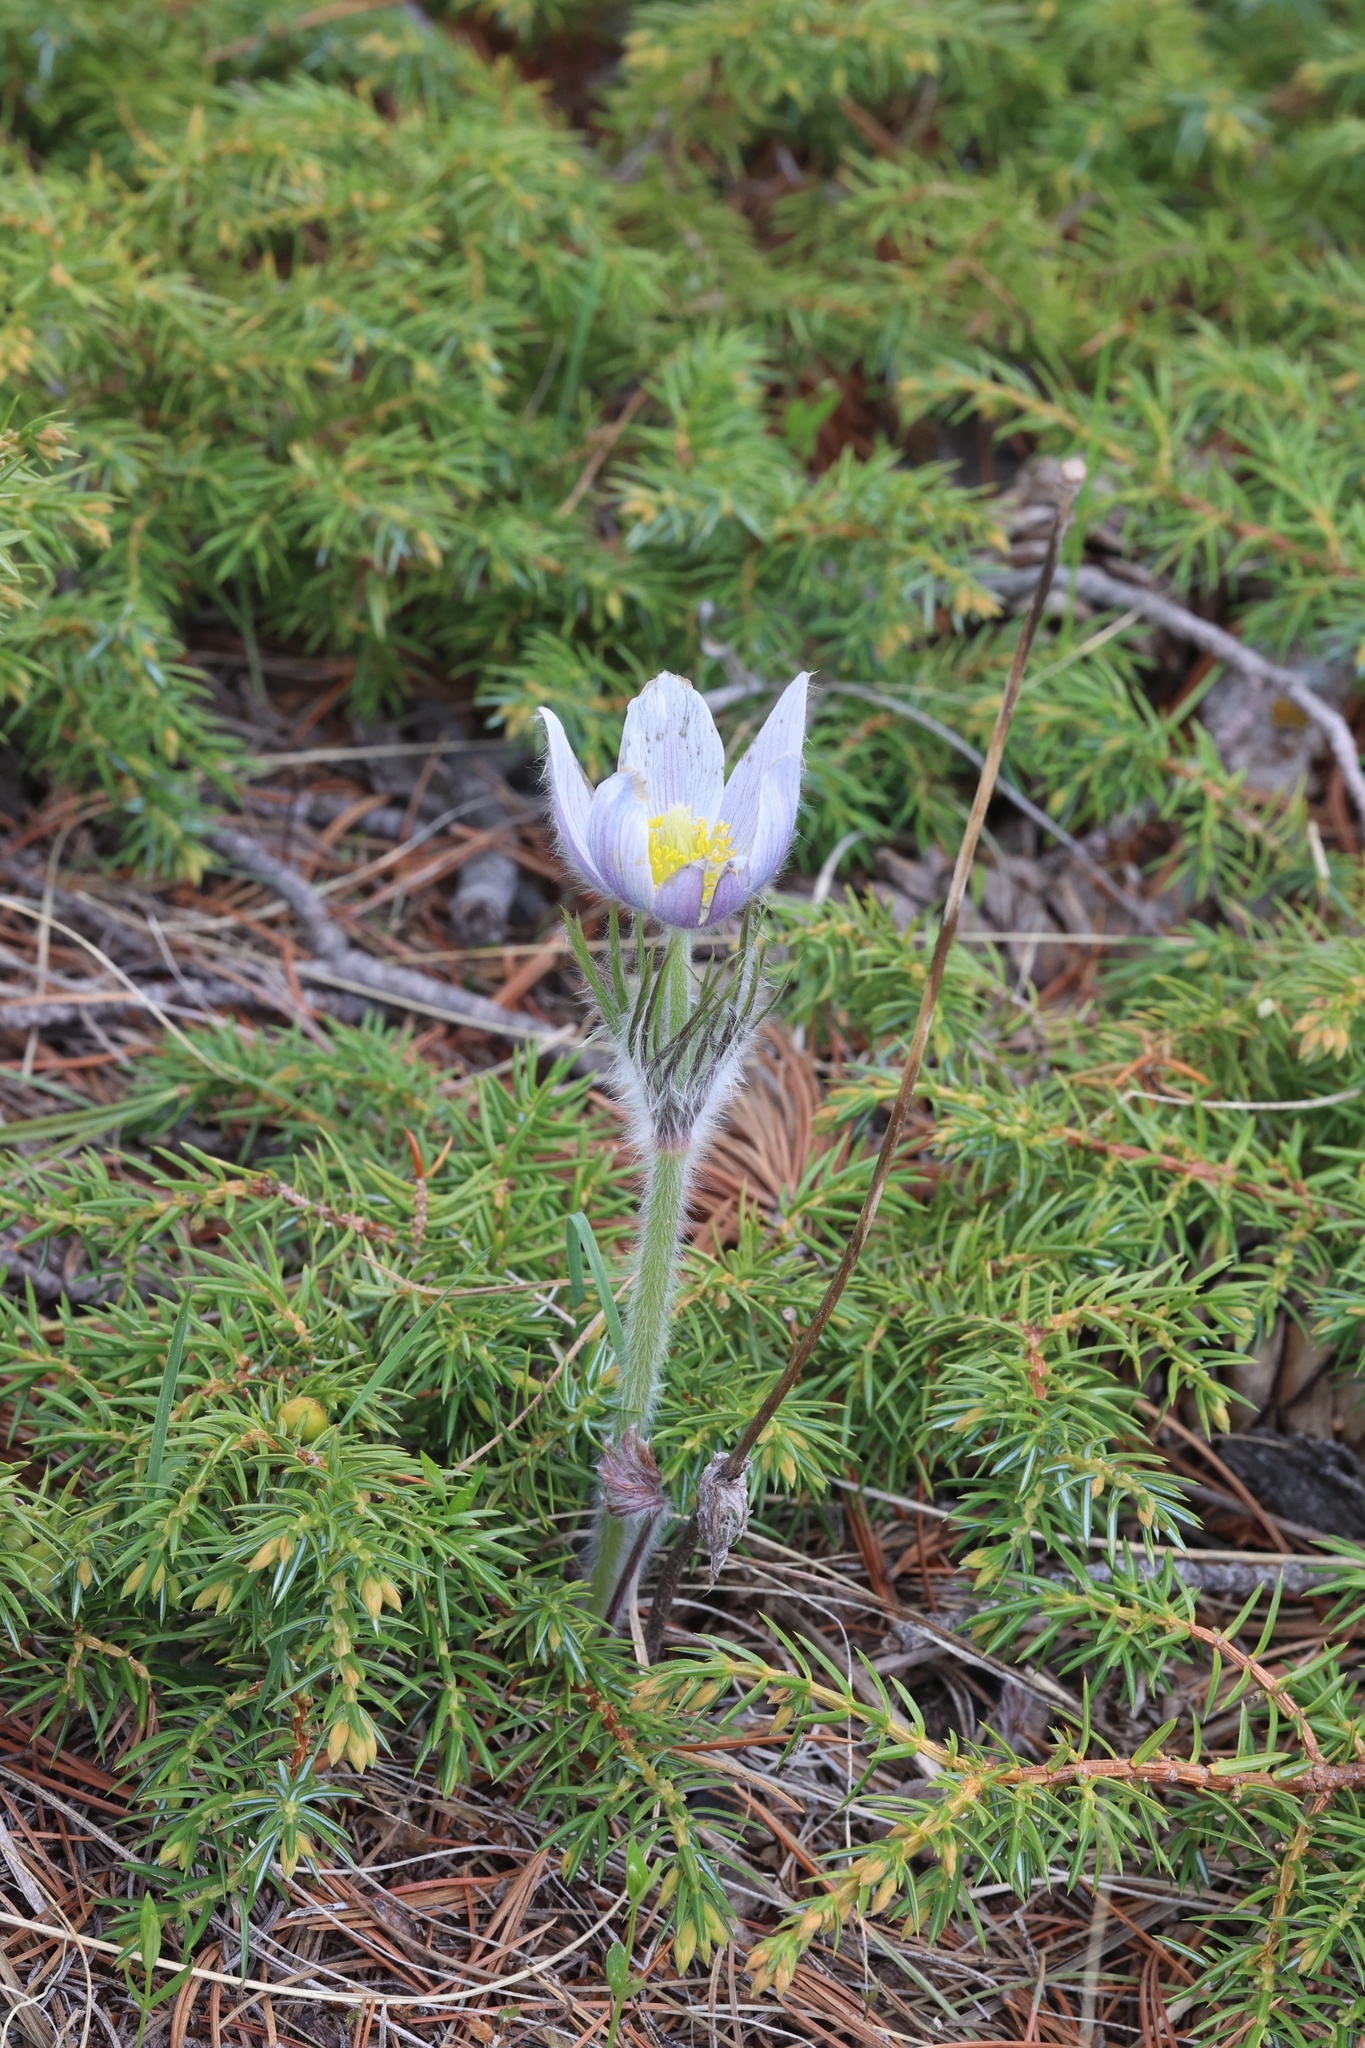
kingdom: Plantae
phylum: Tracheophyta
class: Magnoliopsida
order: Ranunculales
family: Ranunculaceae
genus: Pulsatilla
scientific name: Pulsatilla nuttalliana
